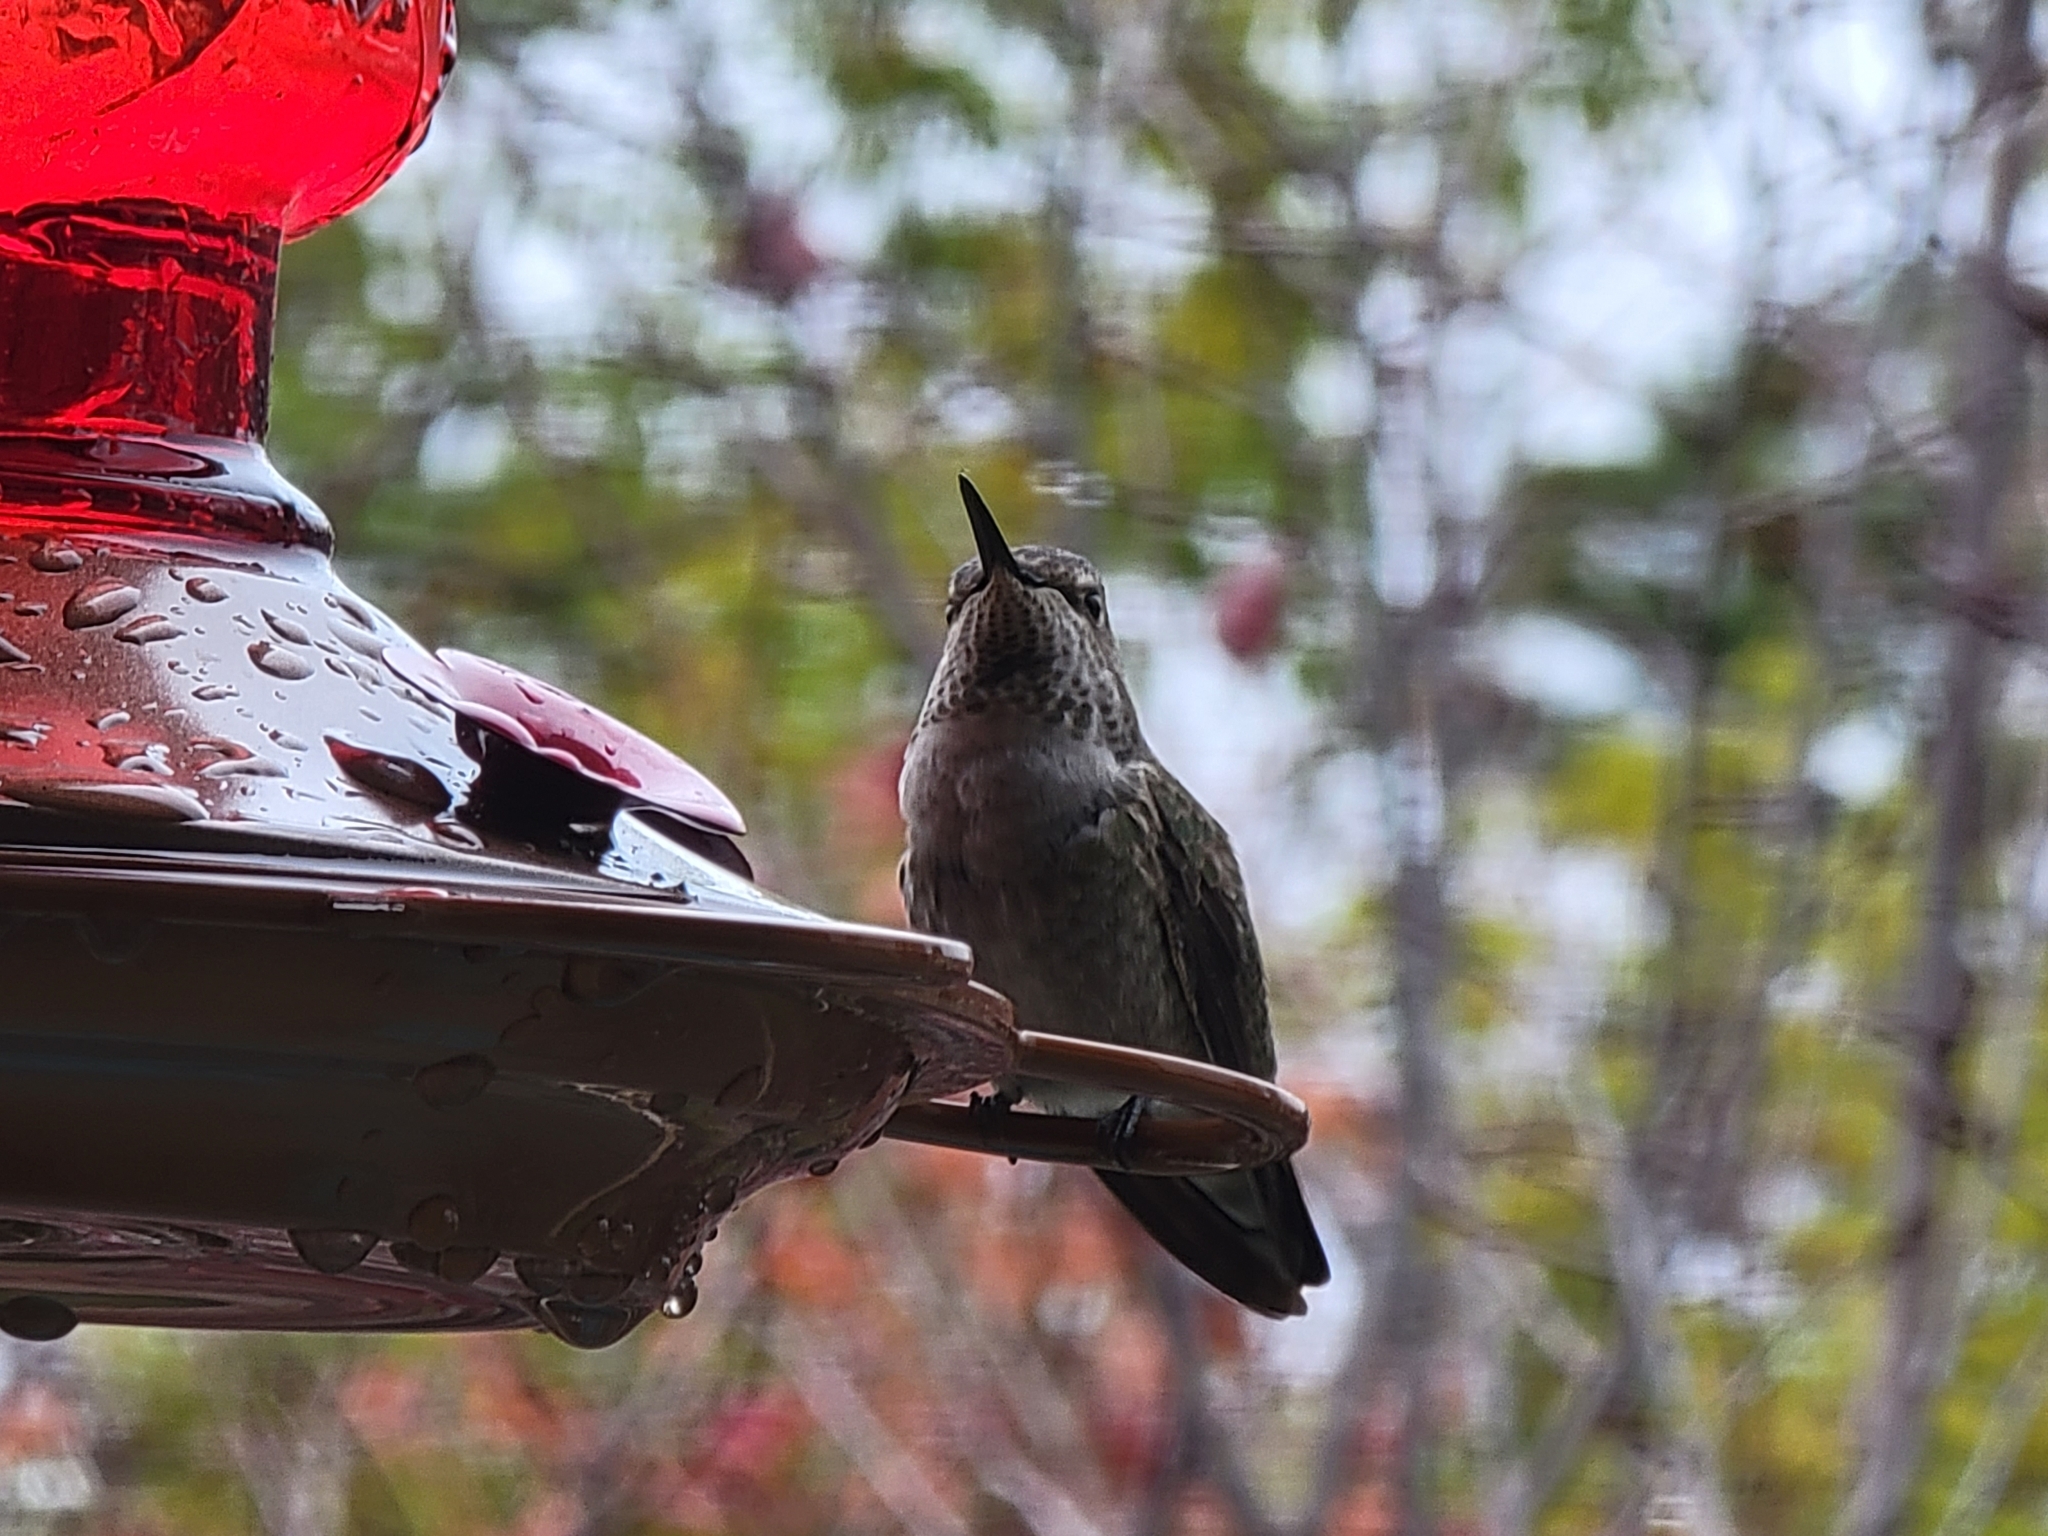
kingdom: Animalia
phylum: Chordata
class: Aves
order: Apodiformes
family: Trochilidae
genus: Calypte
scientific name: Calypte anna
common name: Anna's hummingbird
